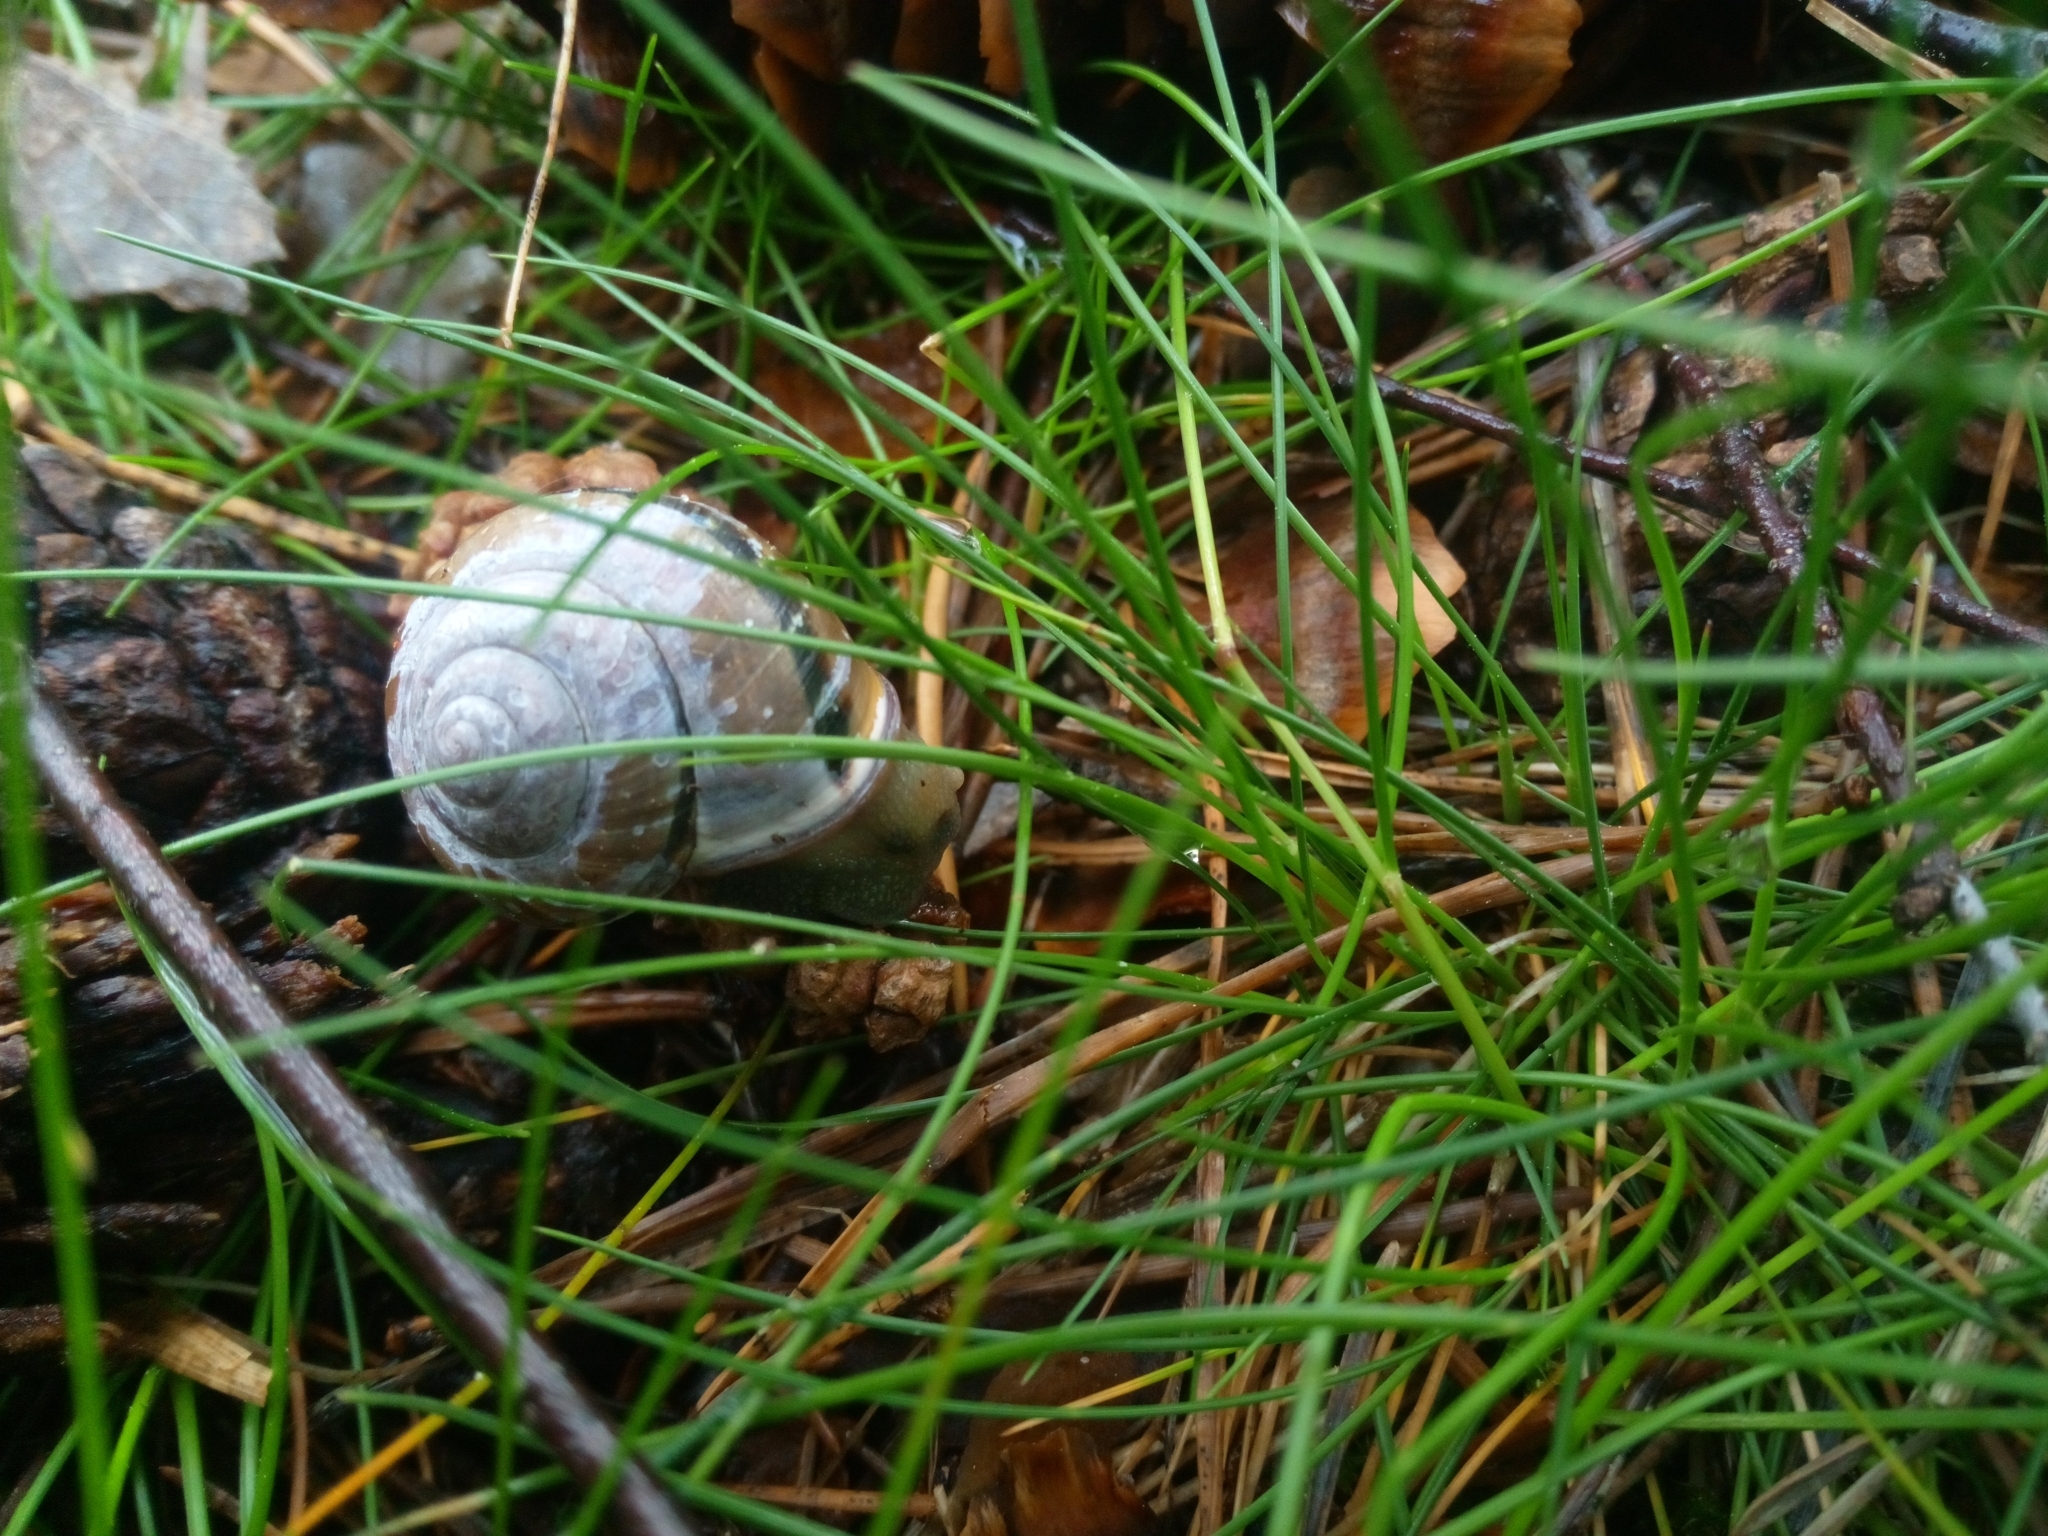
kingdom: Animalia
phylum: Mollusca
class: Gastropoda
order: Stylommatophora
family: Helicidae
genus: Cepaea
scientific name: Cepaea nemoralis
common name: Grovesnail
